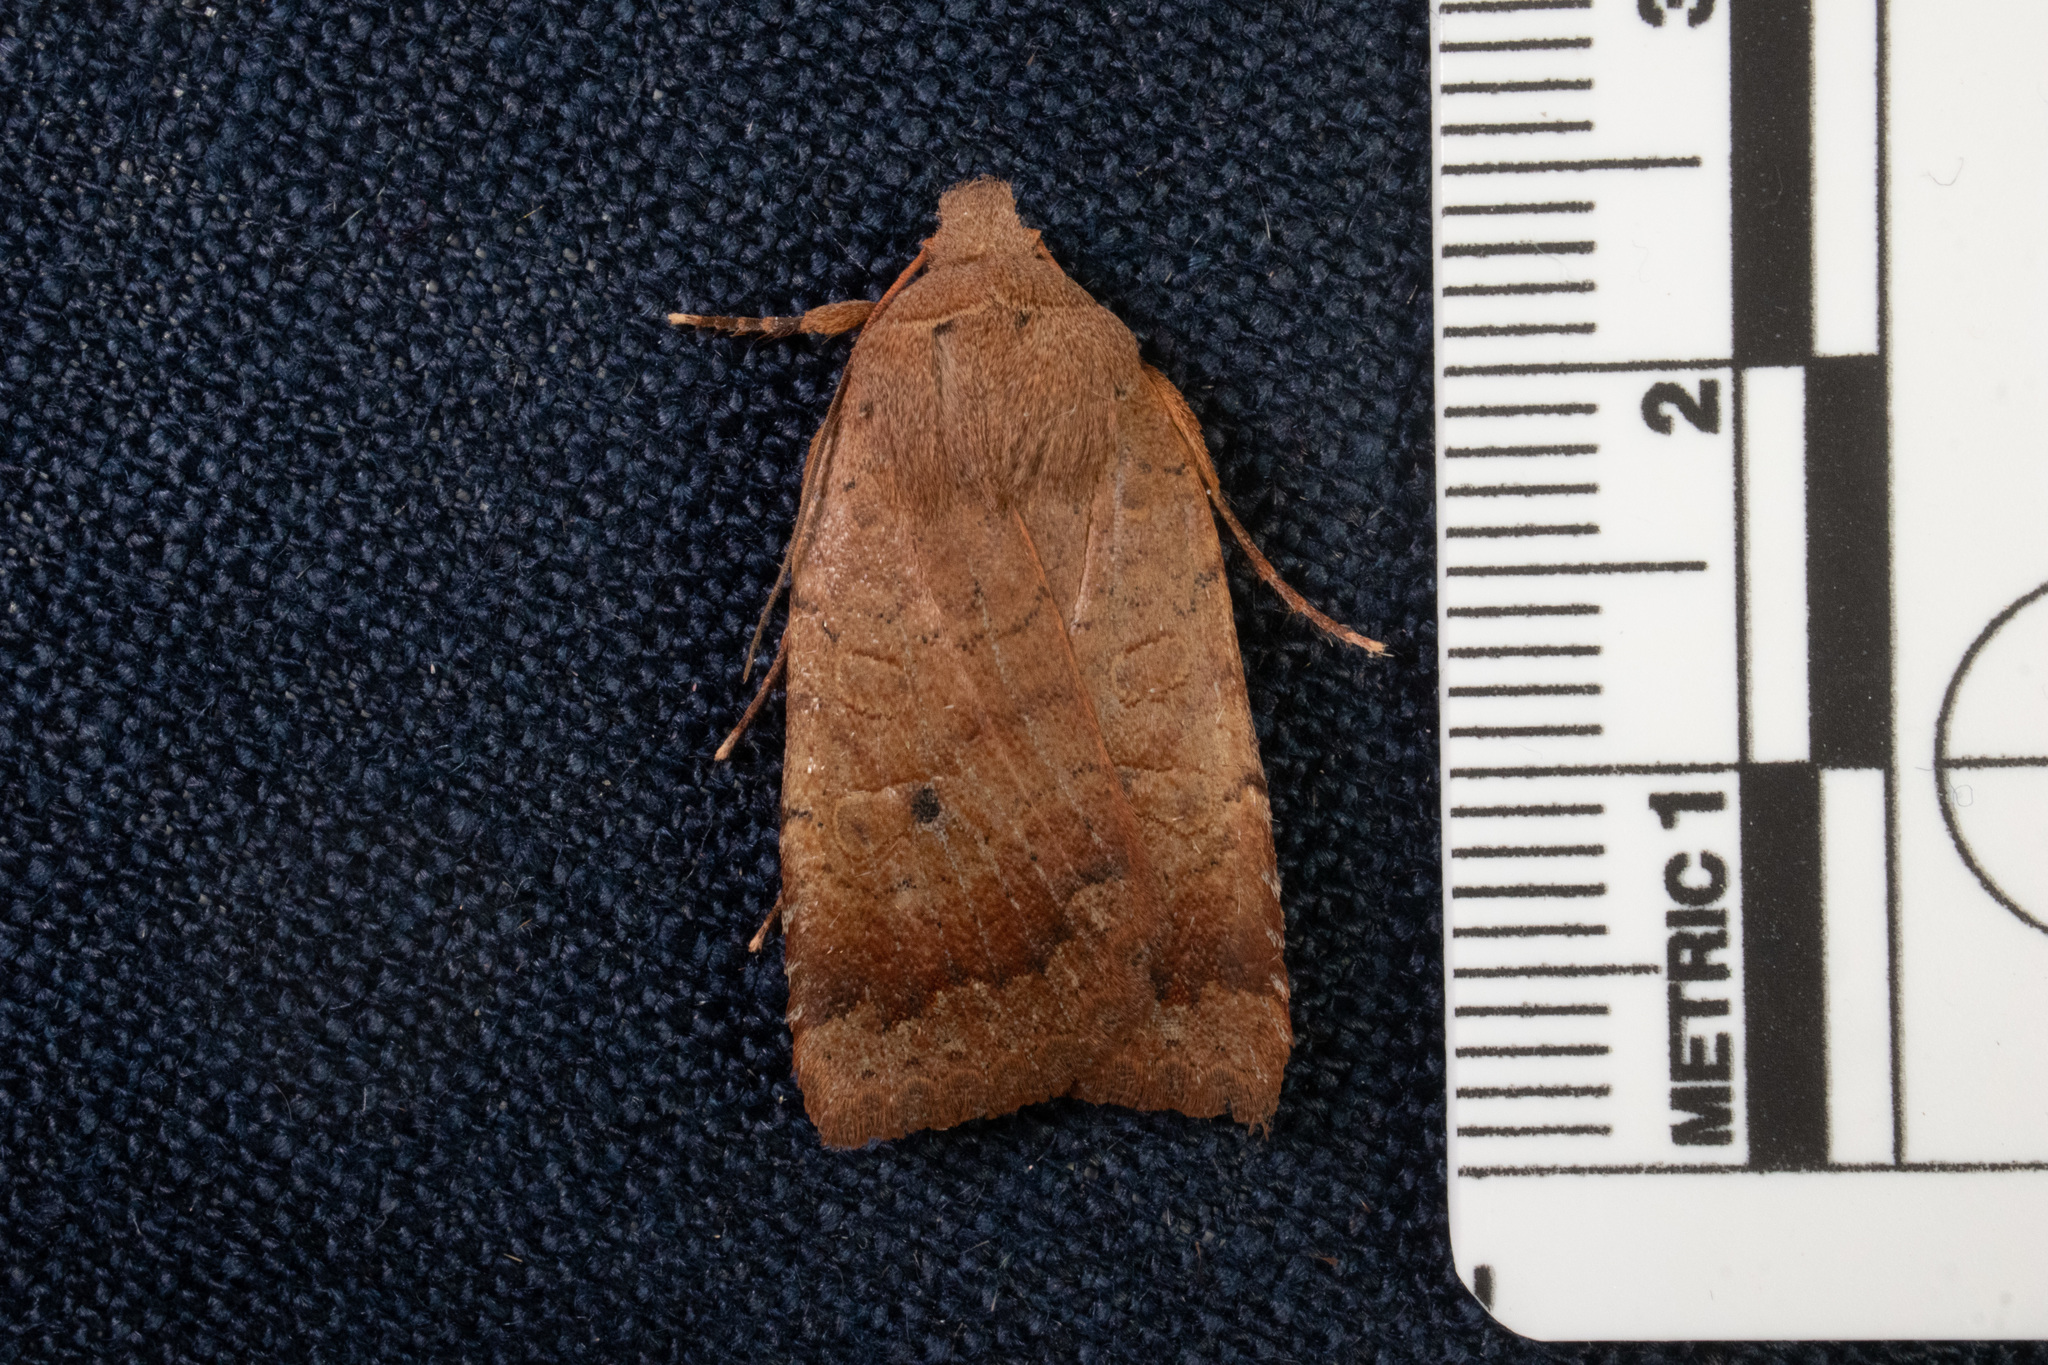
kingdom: Animalia
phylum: Arthropoda
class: Insecta
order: Lepidoptera
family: Noctuidae
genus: Sericaglaea
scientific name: Sericaglaea signata
